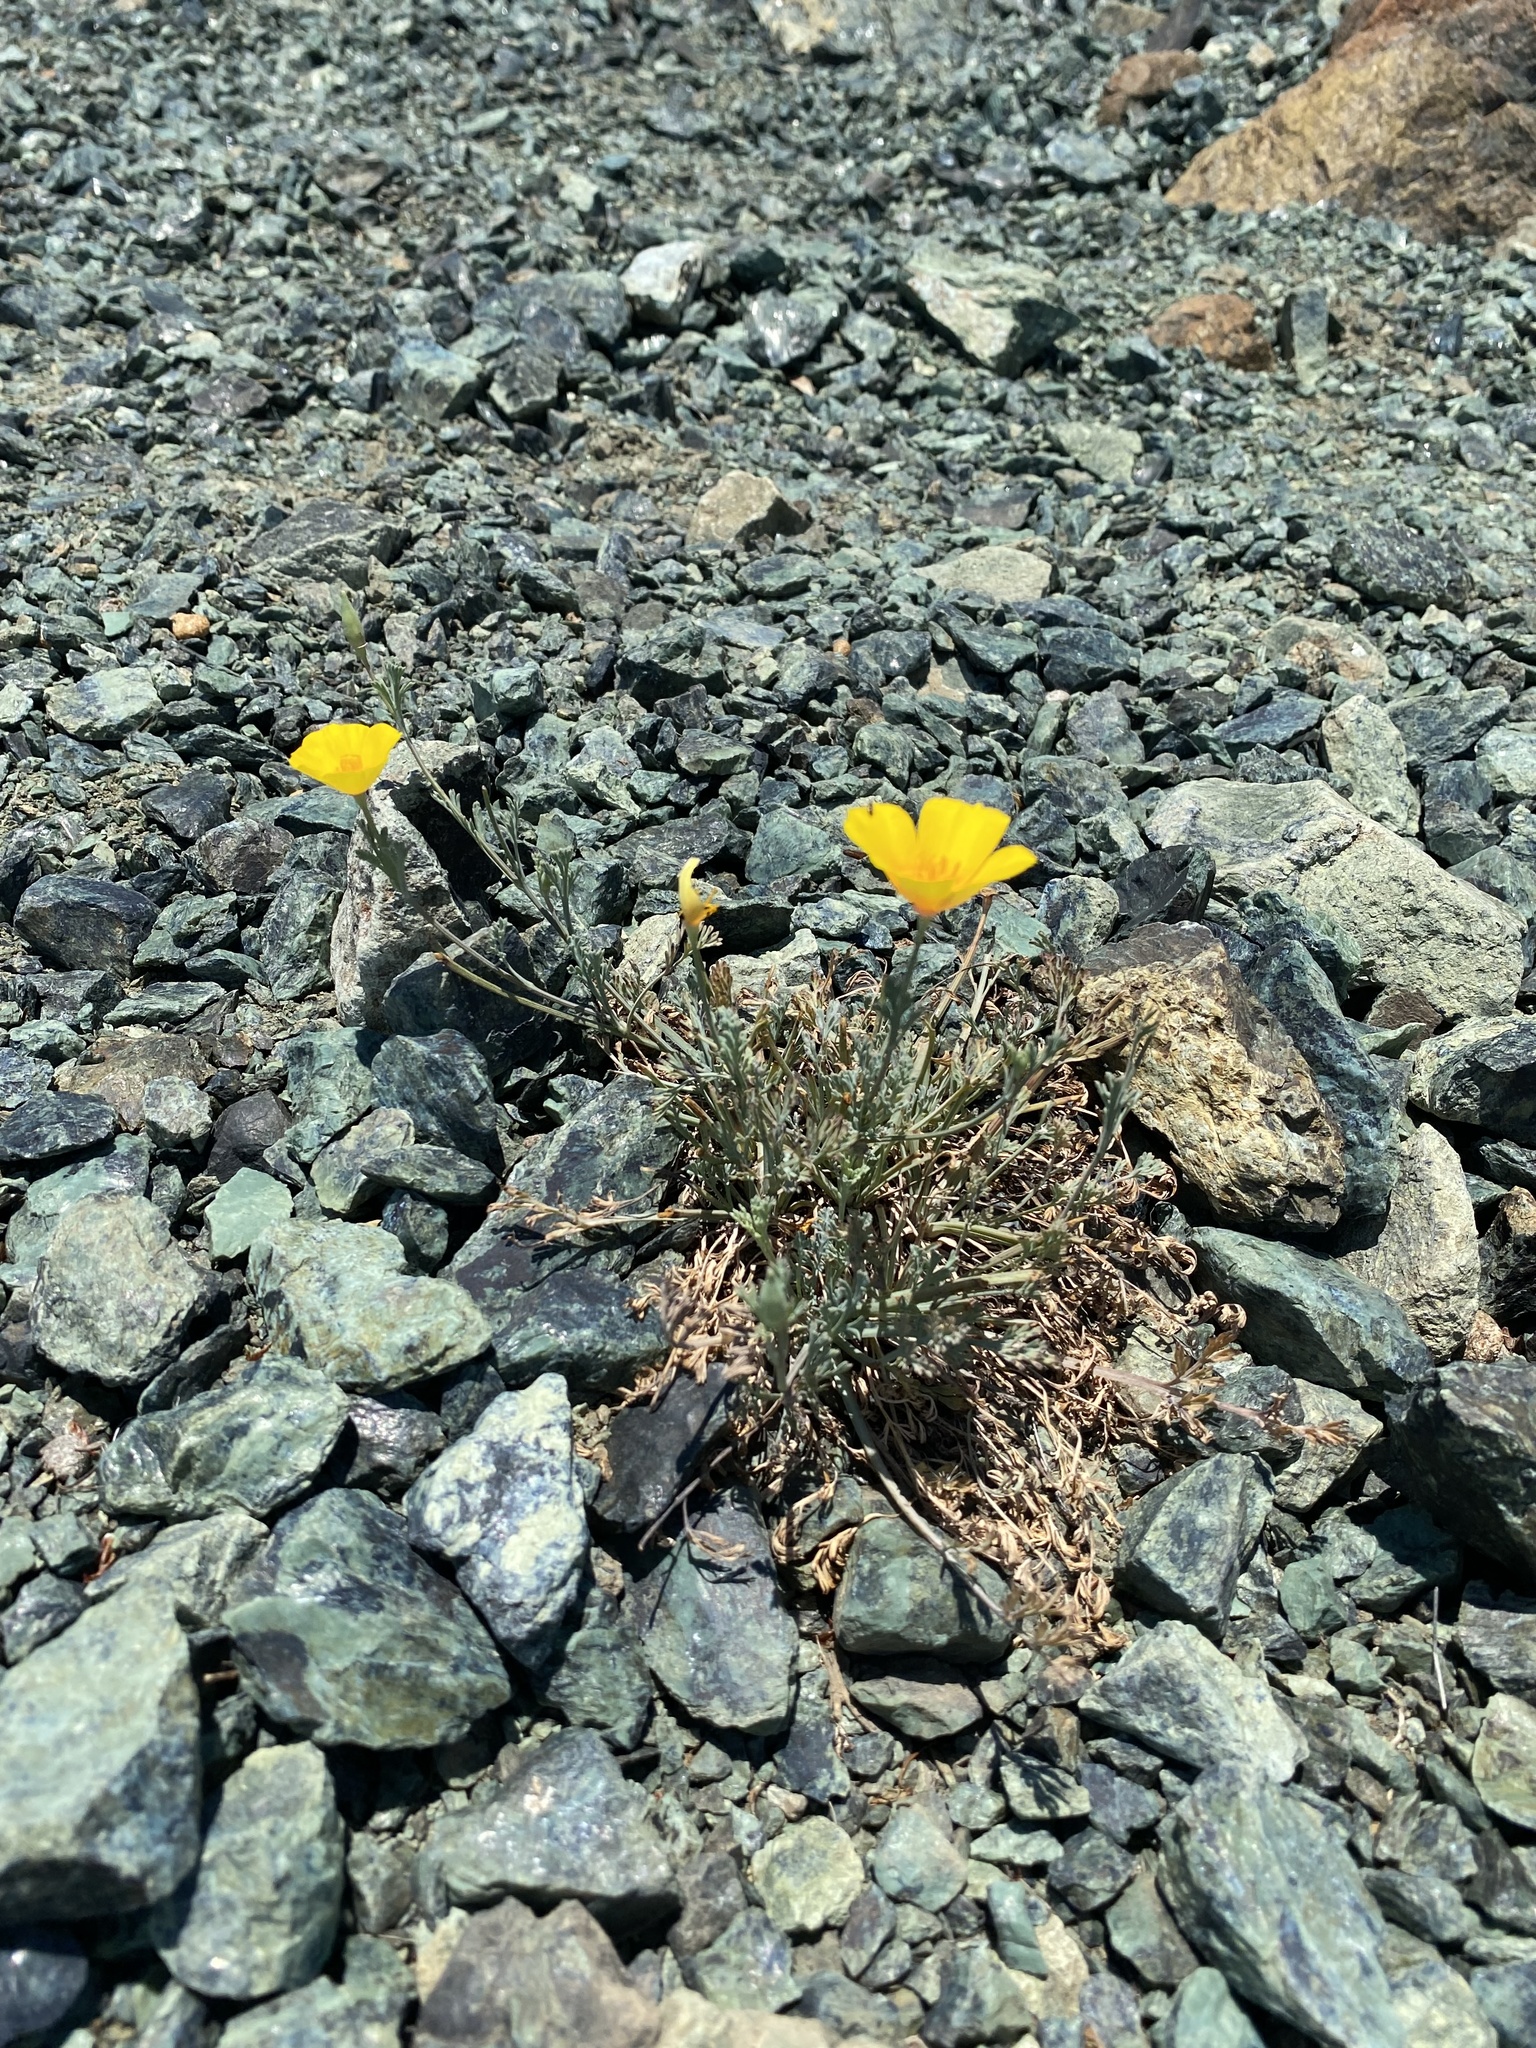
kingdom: Plantae
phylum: Tracheophyta
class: Magnoliopsida
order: Ranunculales
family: Papaveraceae
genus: Eschscholzia
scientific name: Eschscholzia californica
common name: California poppy
